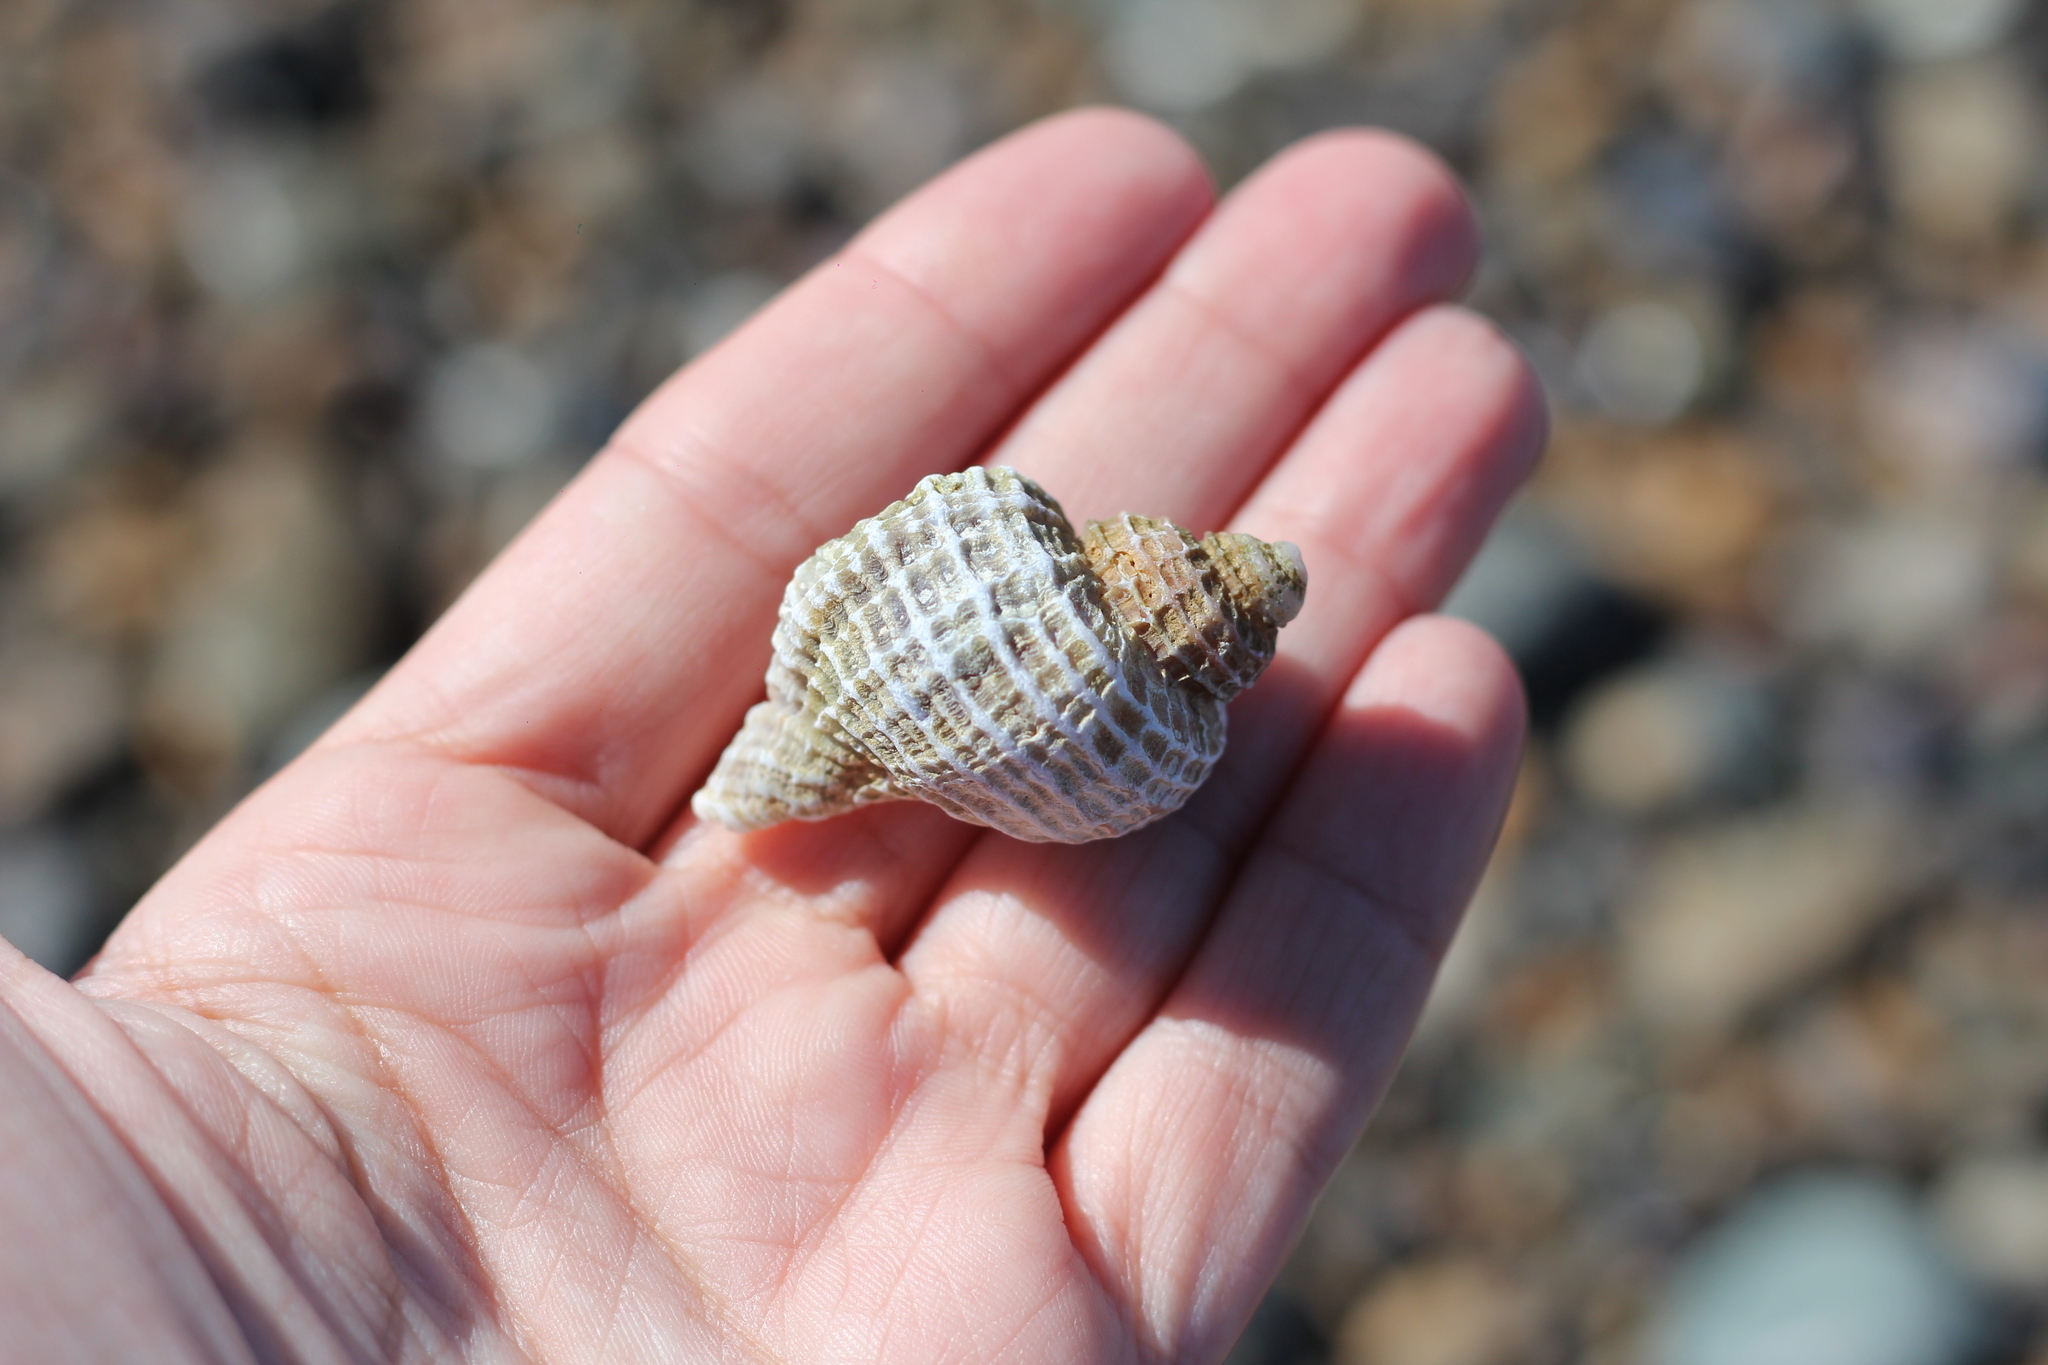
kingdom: Animalia
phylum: Mollusca
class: Gastropoda
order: Neogastropoda
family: Muricidae
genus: Trophon
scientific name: Trophon geversianus
